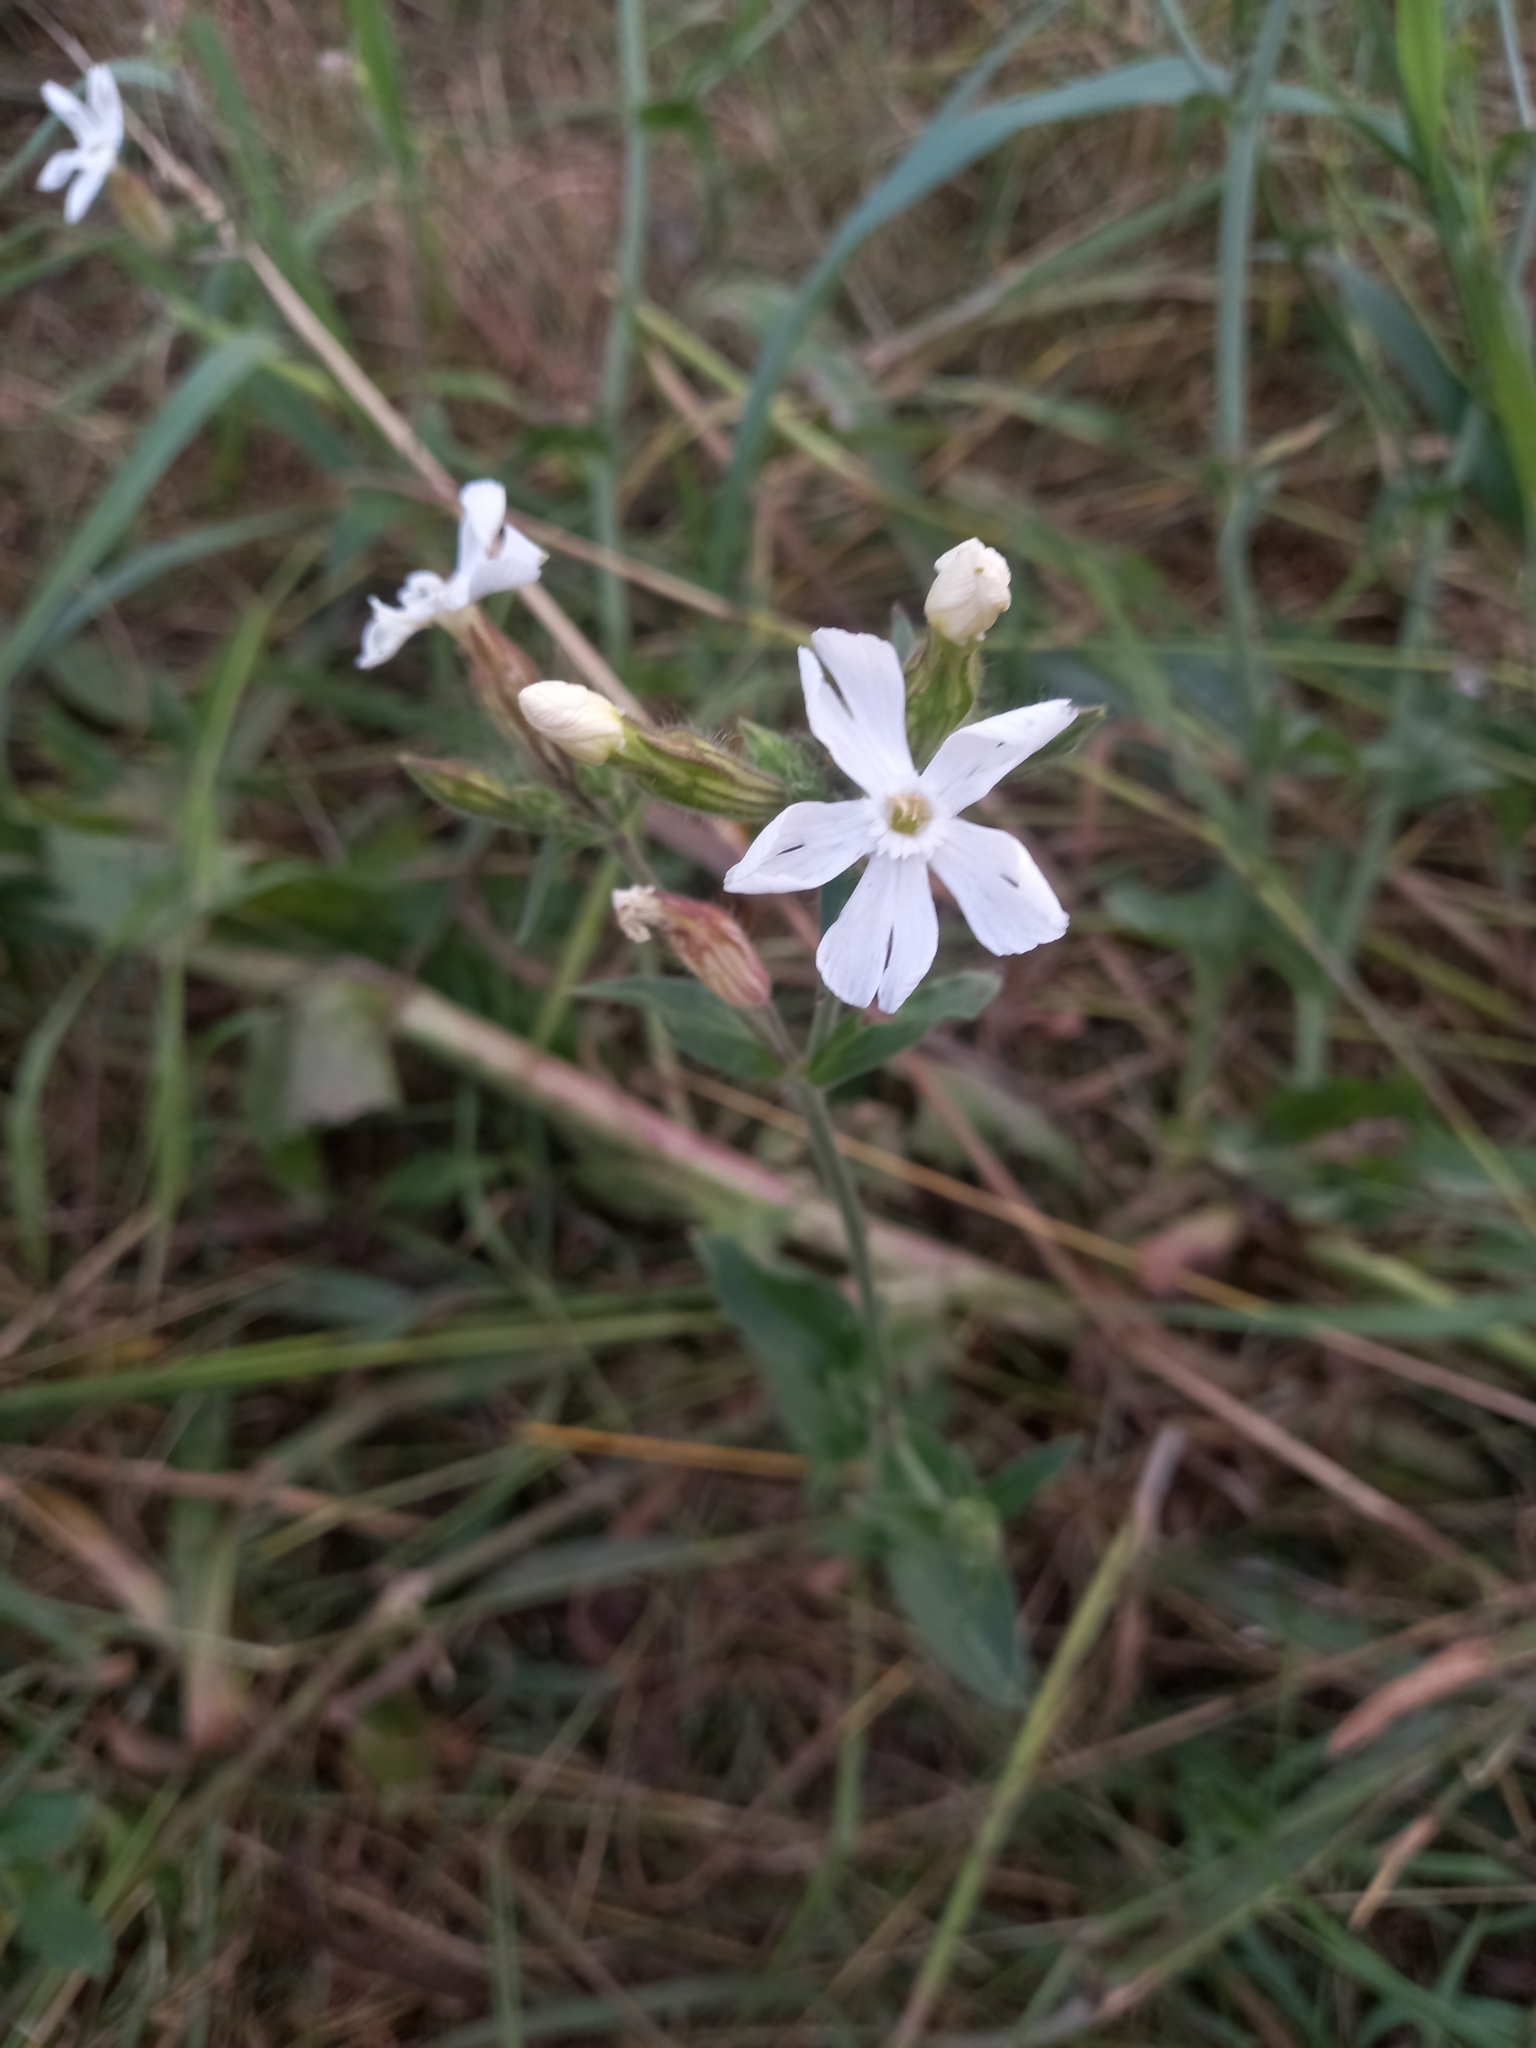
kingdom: Plantae
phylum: Tracheophyta
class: Magnoliopsida
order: Caryophyllales
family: Caryophyllaceae
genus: Silene
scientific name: Silene latifolia
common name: White campion
